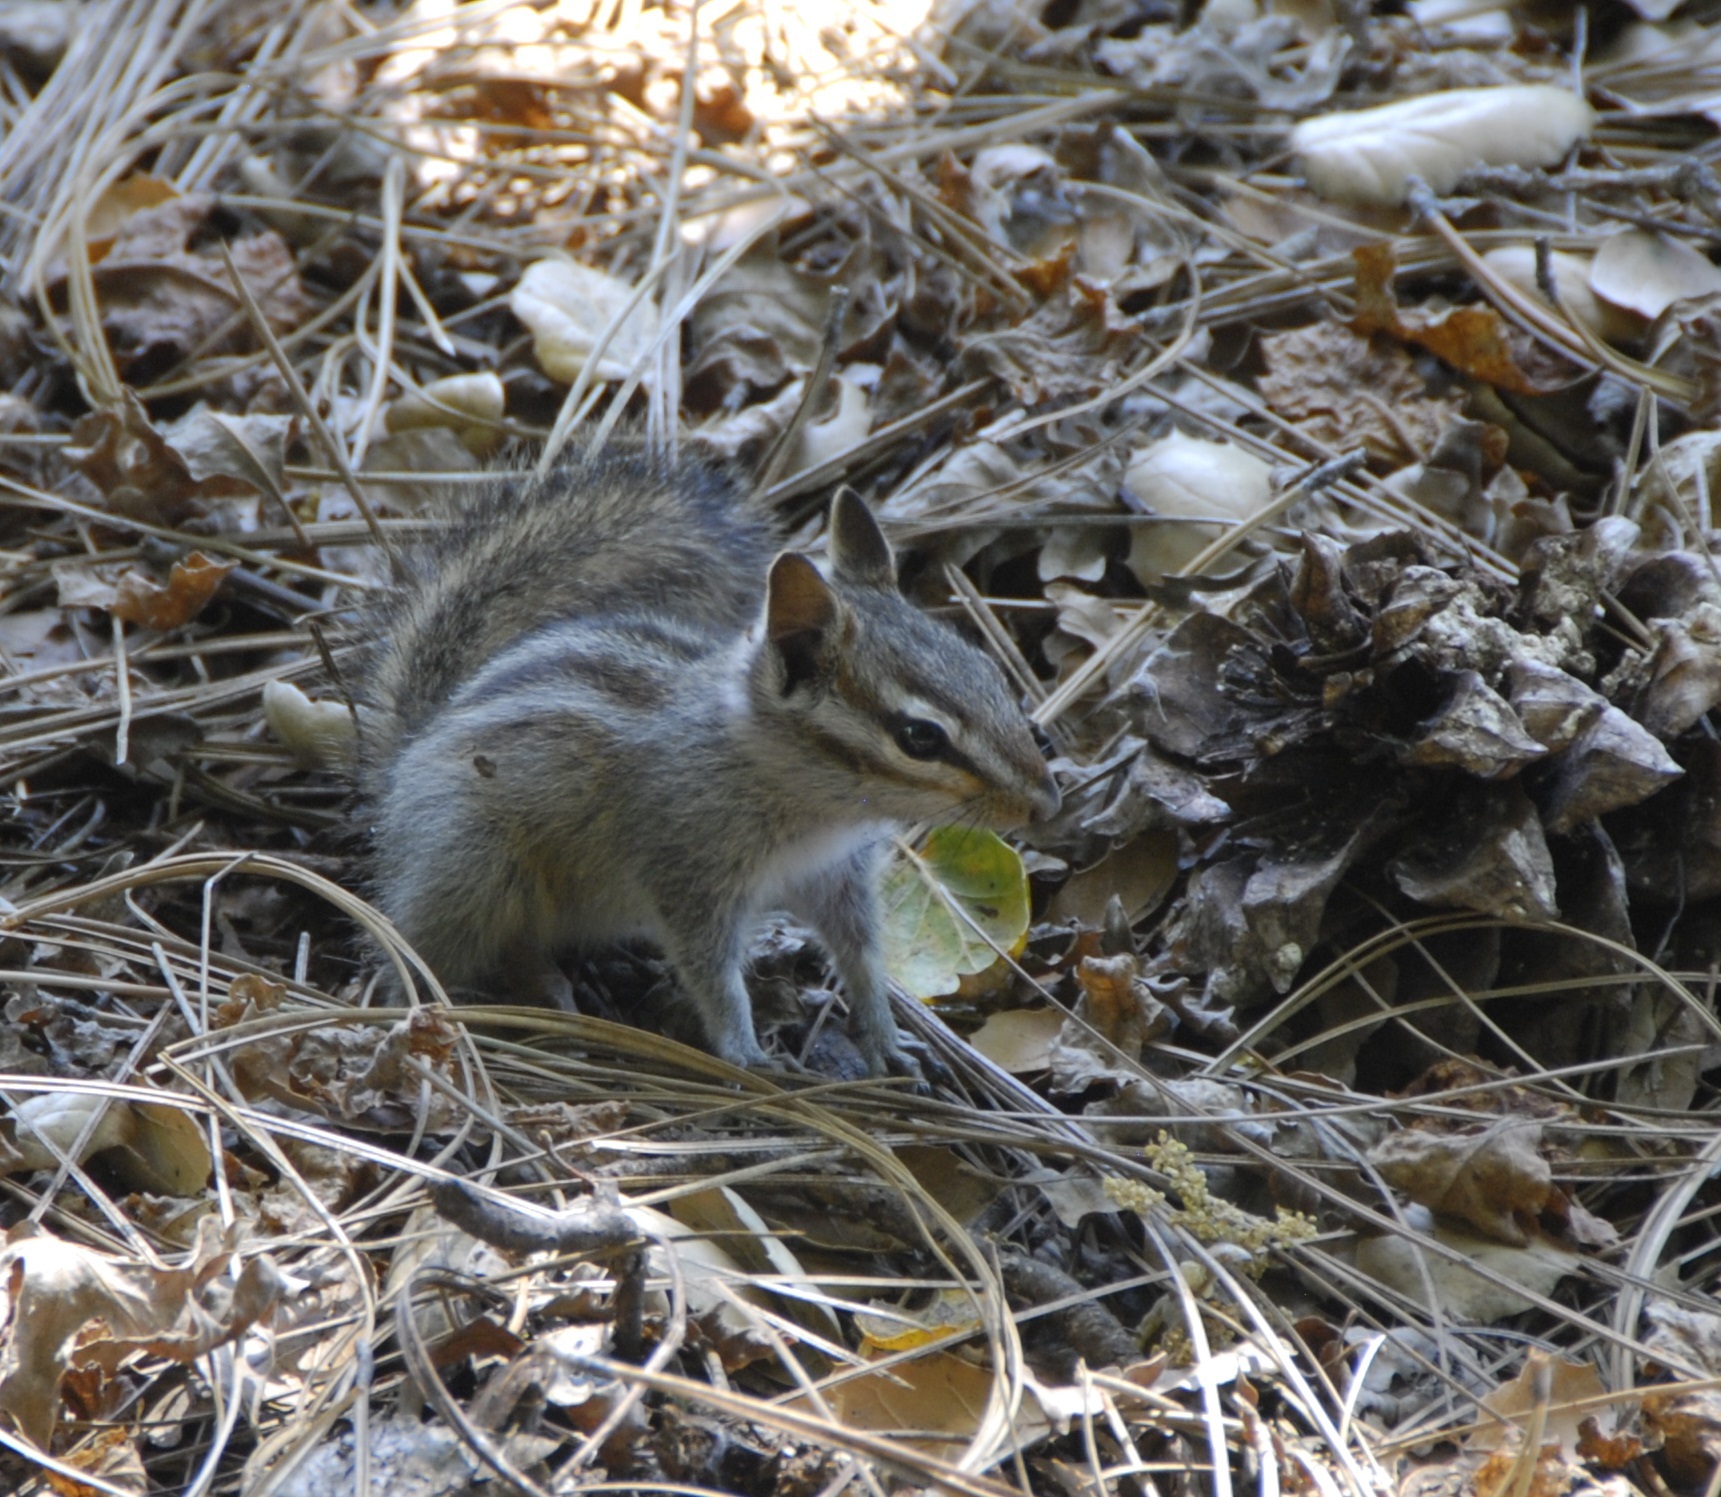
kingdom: Animalia
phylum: Chordata
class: Mammalia
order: Rodentia
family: Sciuridae
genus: Tamias
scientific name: Tamias merriami
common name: Merriam's chipmunk
